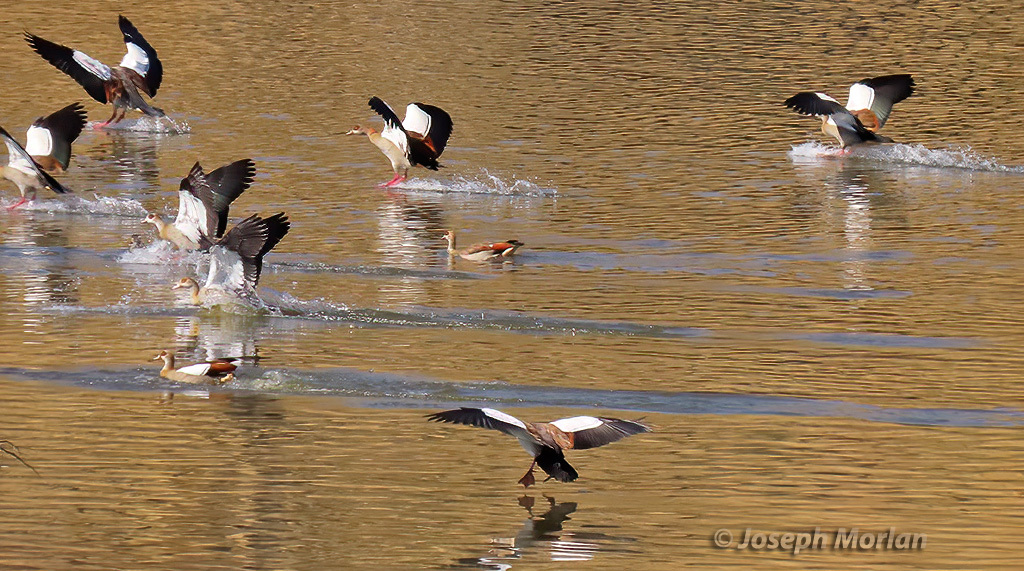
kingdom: Animalia
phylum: Chordata
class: Aves
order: Anseriformes
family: Anatidae
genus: Alopochen
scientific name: Alopochen aegyptiaca
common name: Egyptian goose
